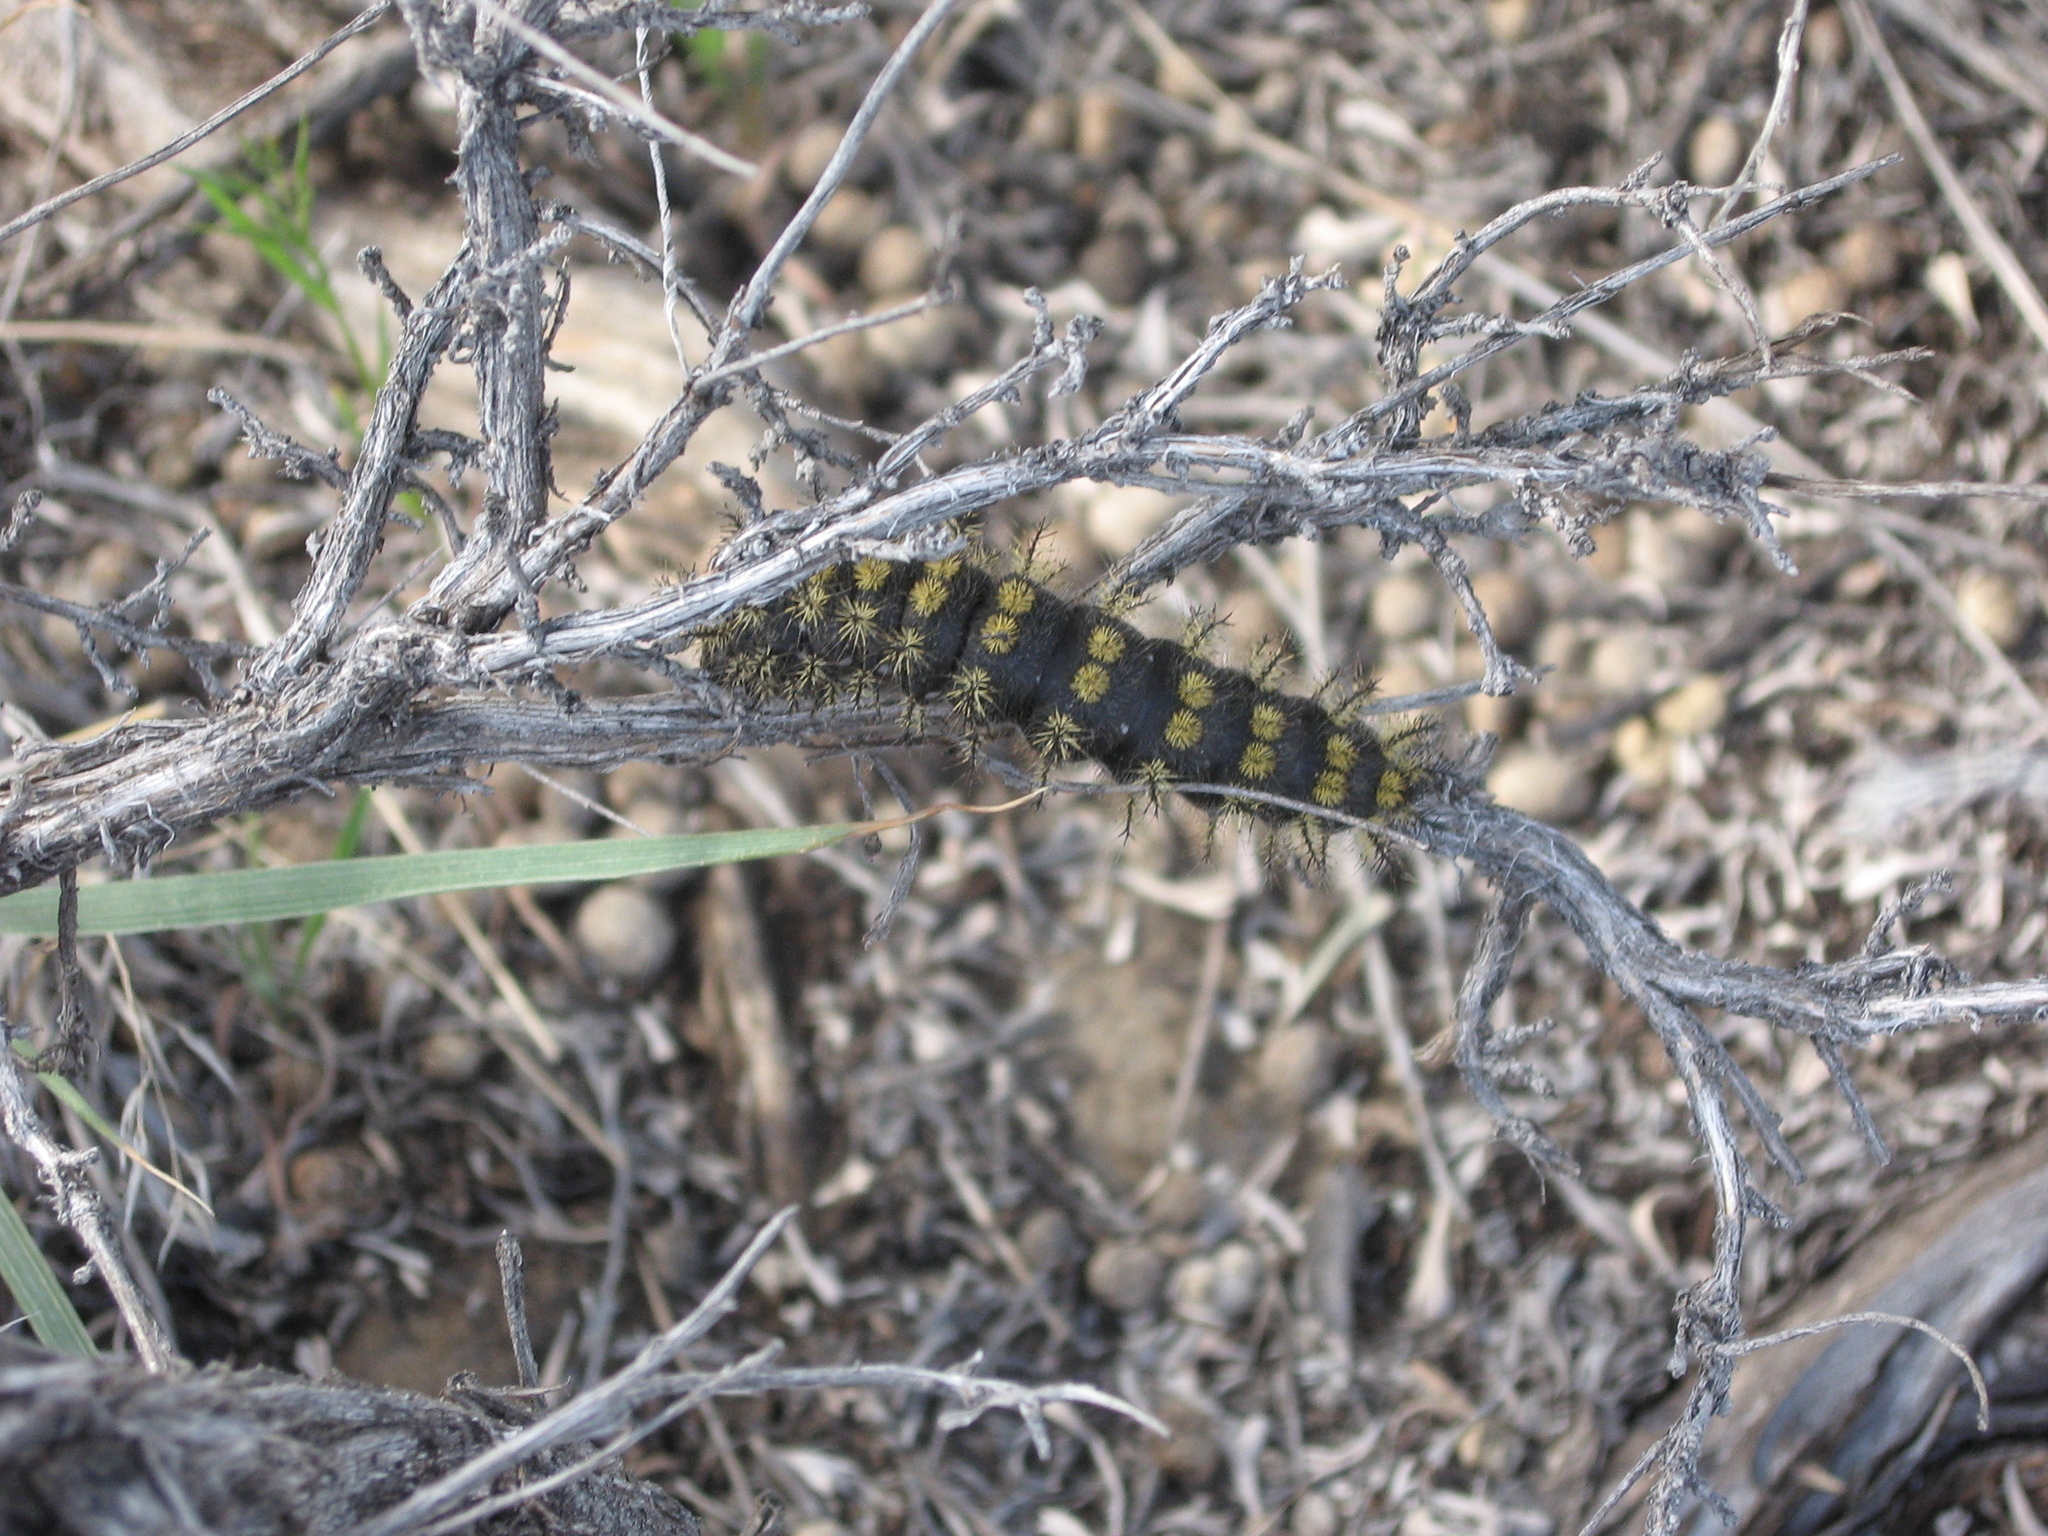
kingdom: Animalia
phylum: Arthropoda
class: Insecta
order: Lepidoptera
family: Saturniidae
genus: Hemileuca
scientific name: Hemileuca hera
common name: Hera sheepmoth
